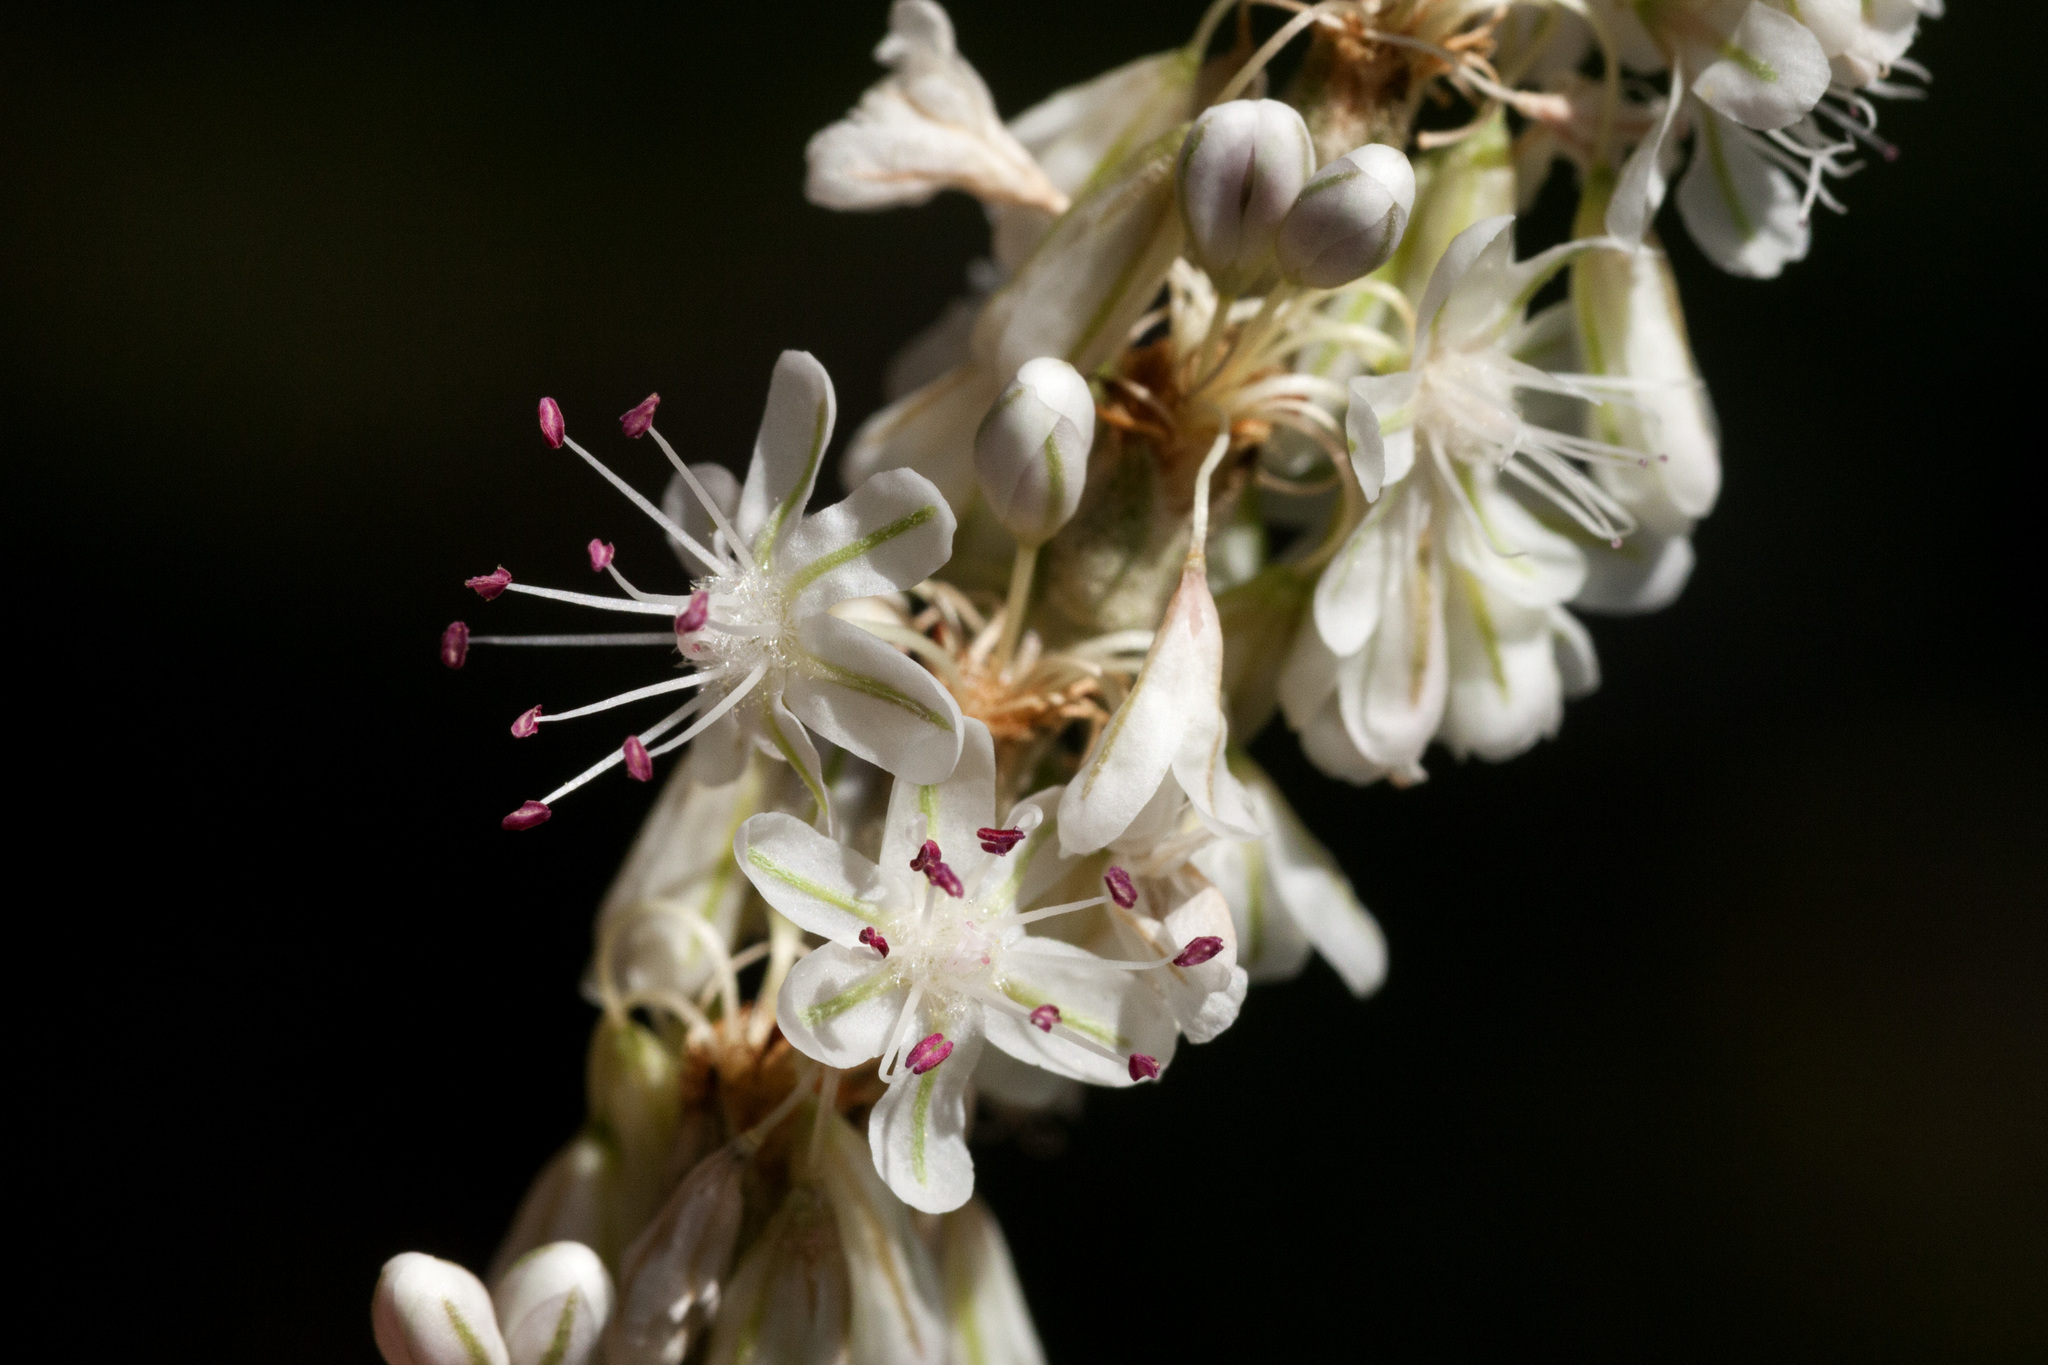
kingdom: Plantae
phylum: Tracheophyta
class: Magnoliopsida
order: Caryophyllales
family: Polygonaceae
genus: Eriogonum
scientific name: Eriogonum racemosum
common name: Redroot wild buckwheat
